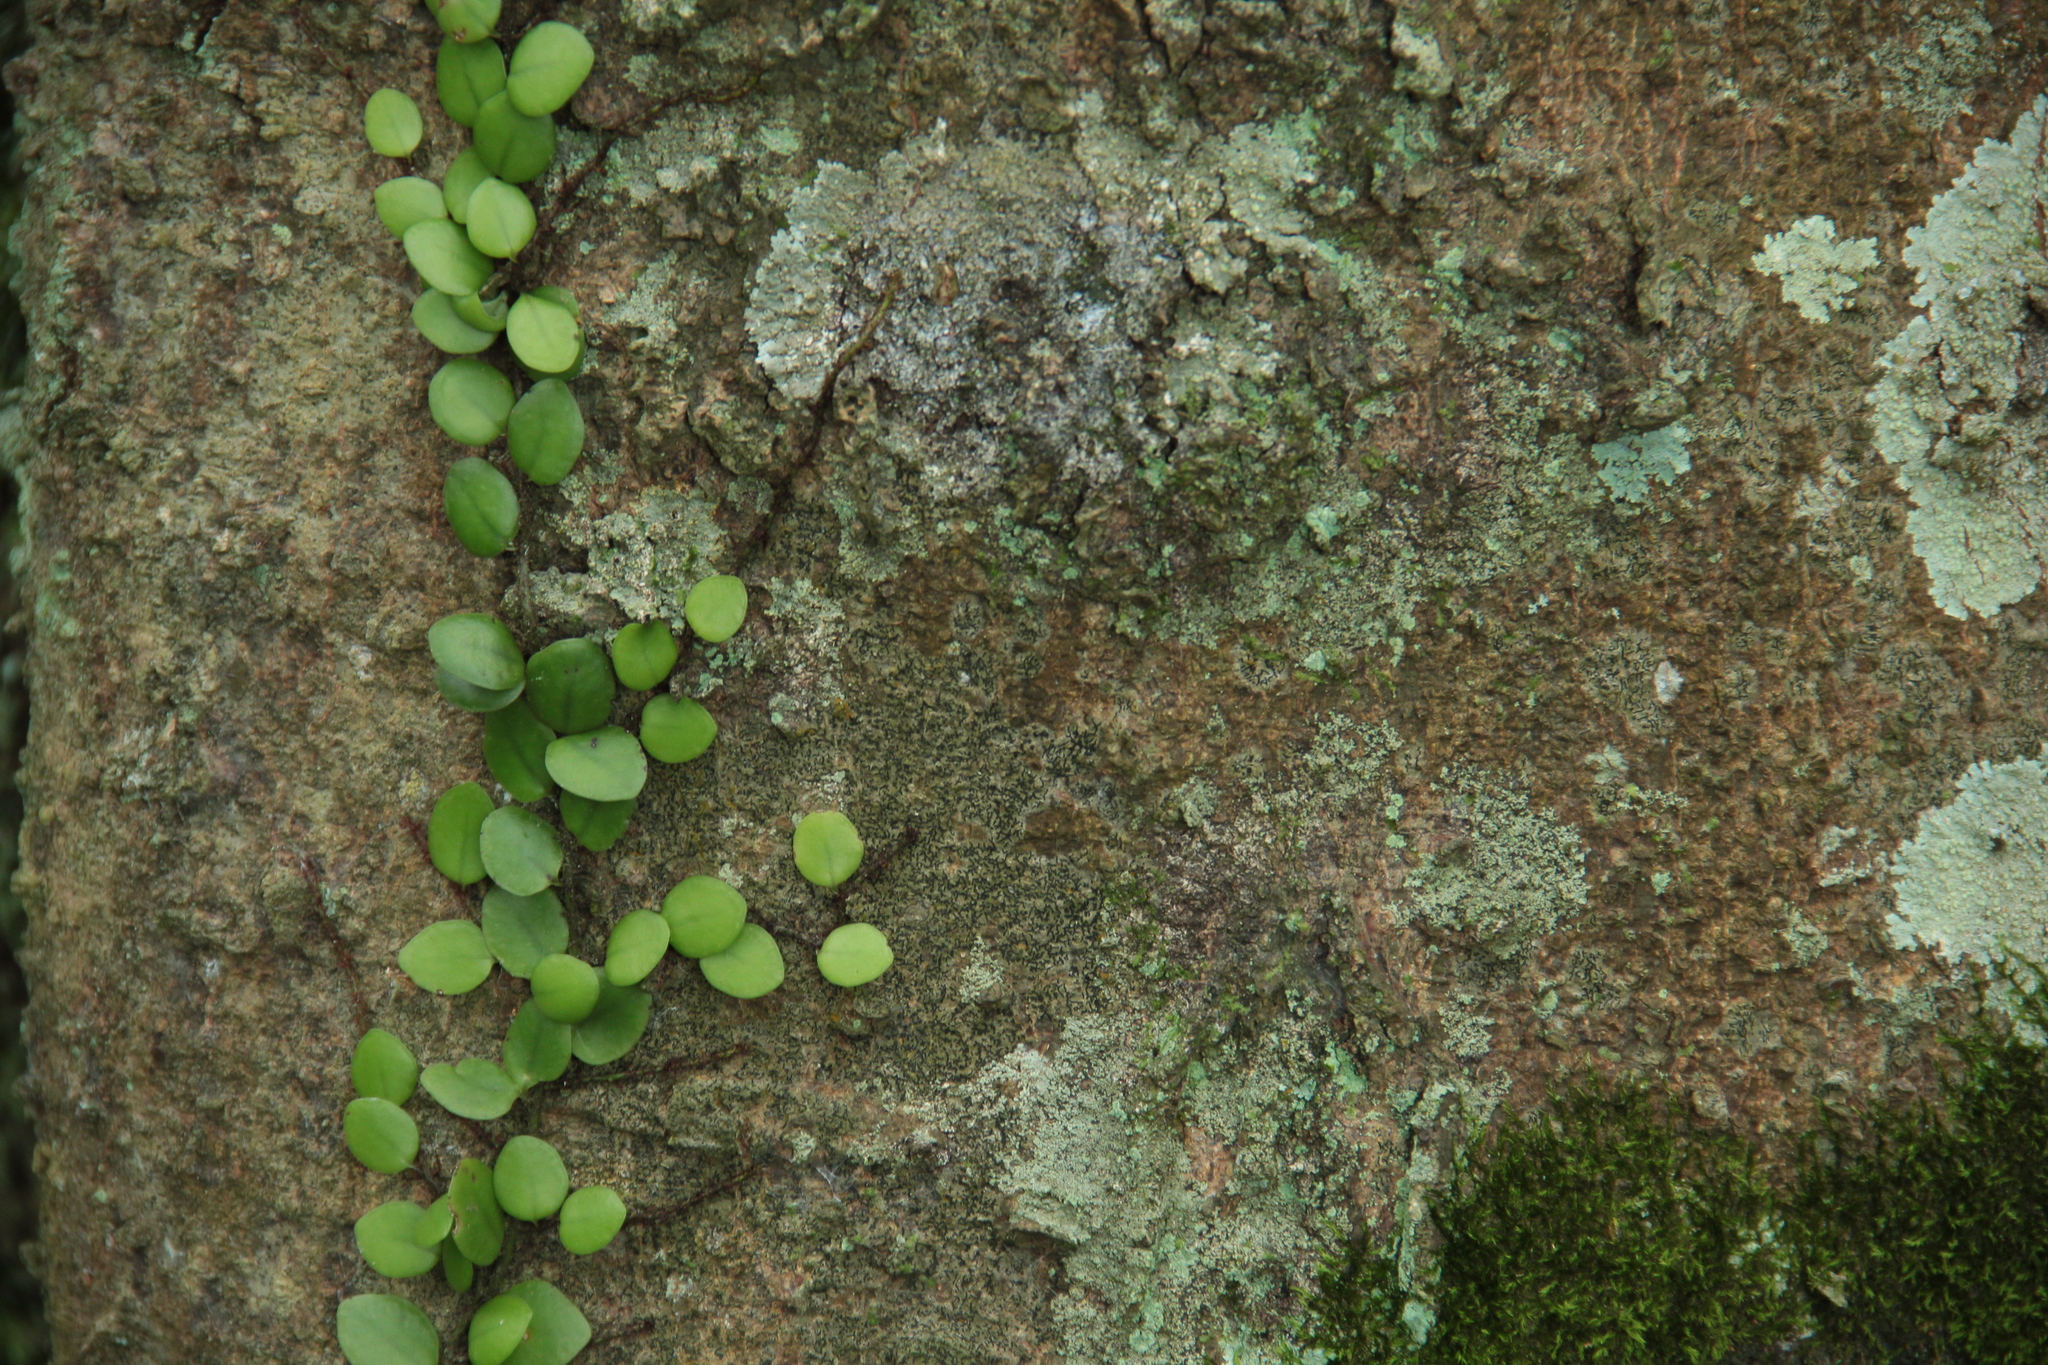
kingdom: Plantae
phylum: Tracheophyta
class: Polypodiopsida
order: Polypodiales
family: Polypodiaceae
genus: Lepisorus
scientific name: Lepisorus microphyllus
